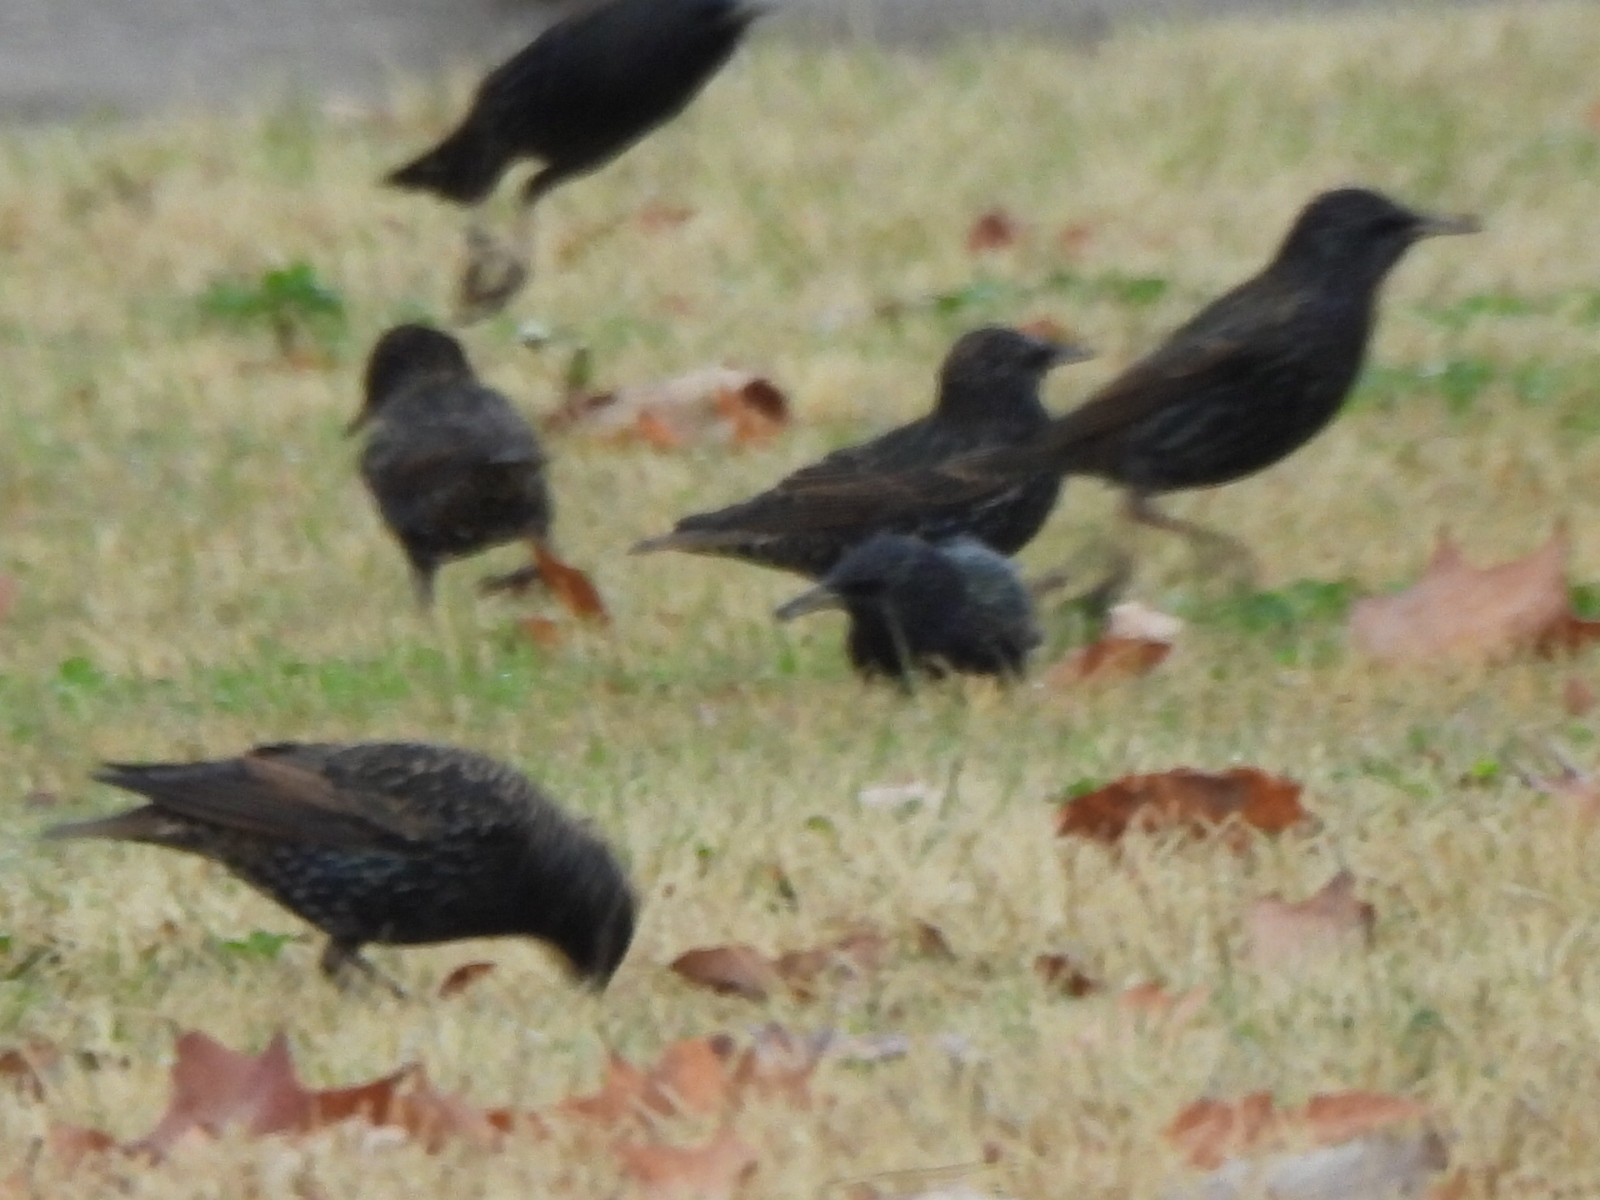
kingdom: Animalia
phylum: Chordata
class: Aves
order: Passeriformes
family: Sturnidae
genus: Sturnus
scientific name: Sturnus vulgaris
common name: Common starling
